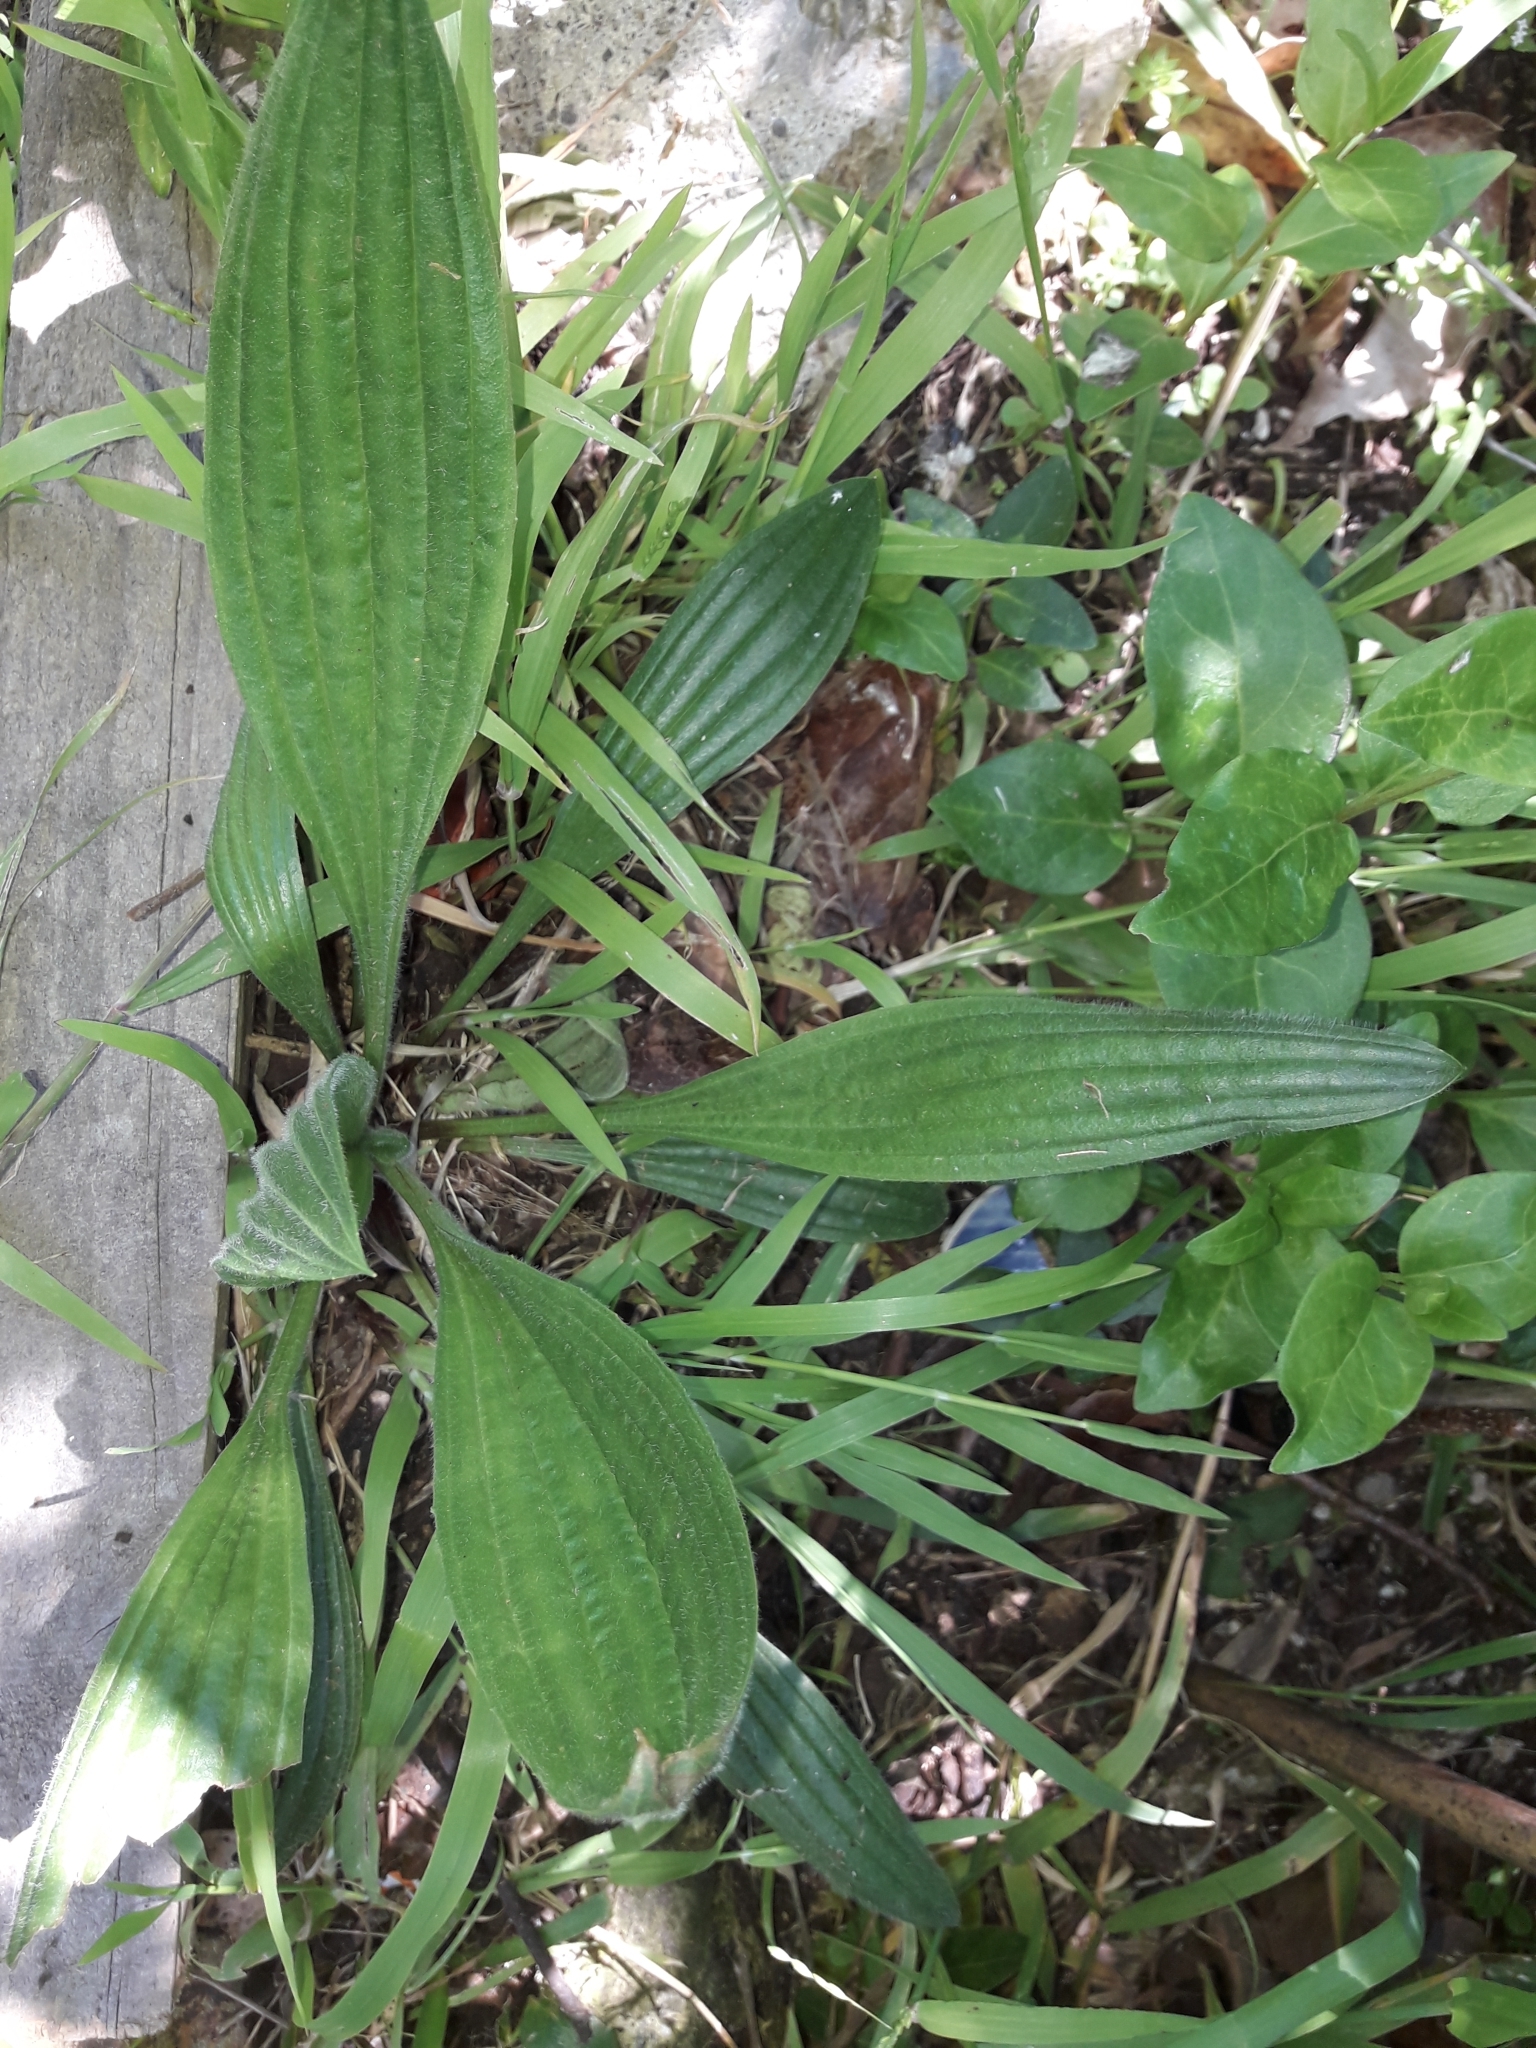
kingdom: Plantae
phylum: Tracheophyta
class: Magnoliopsida
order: Lamiales
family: Plantaginaceae
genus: Plantago
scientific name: Plantago lanceolata
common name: Ribwort plantain
